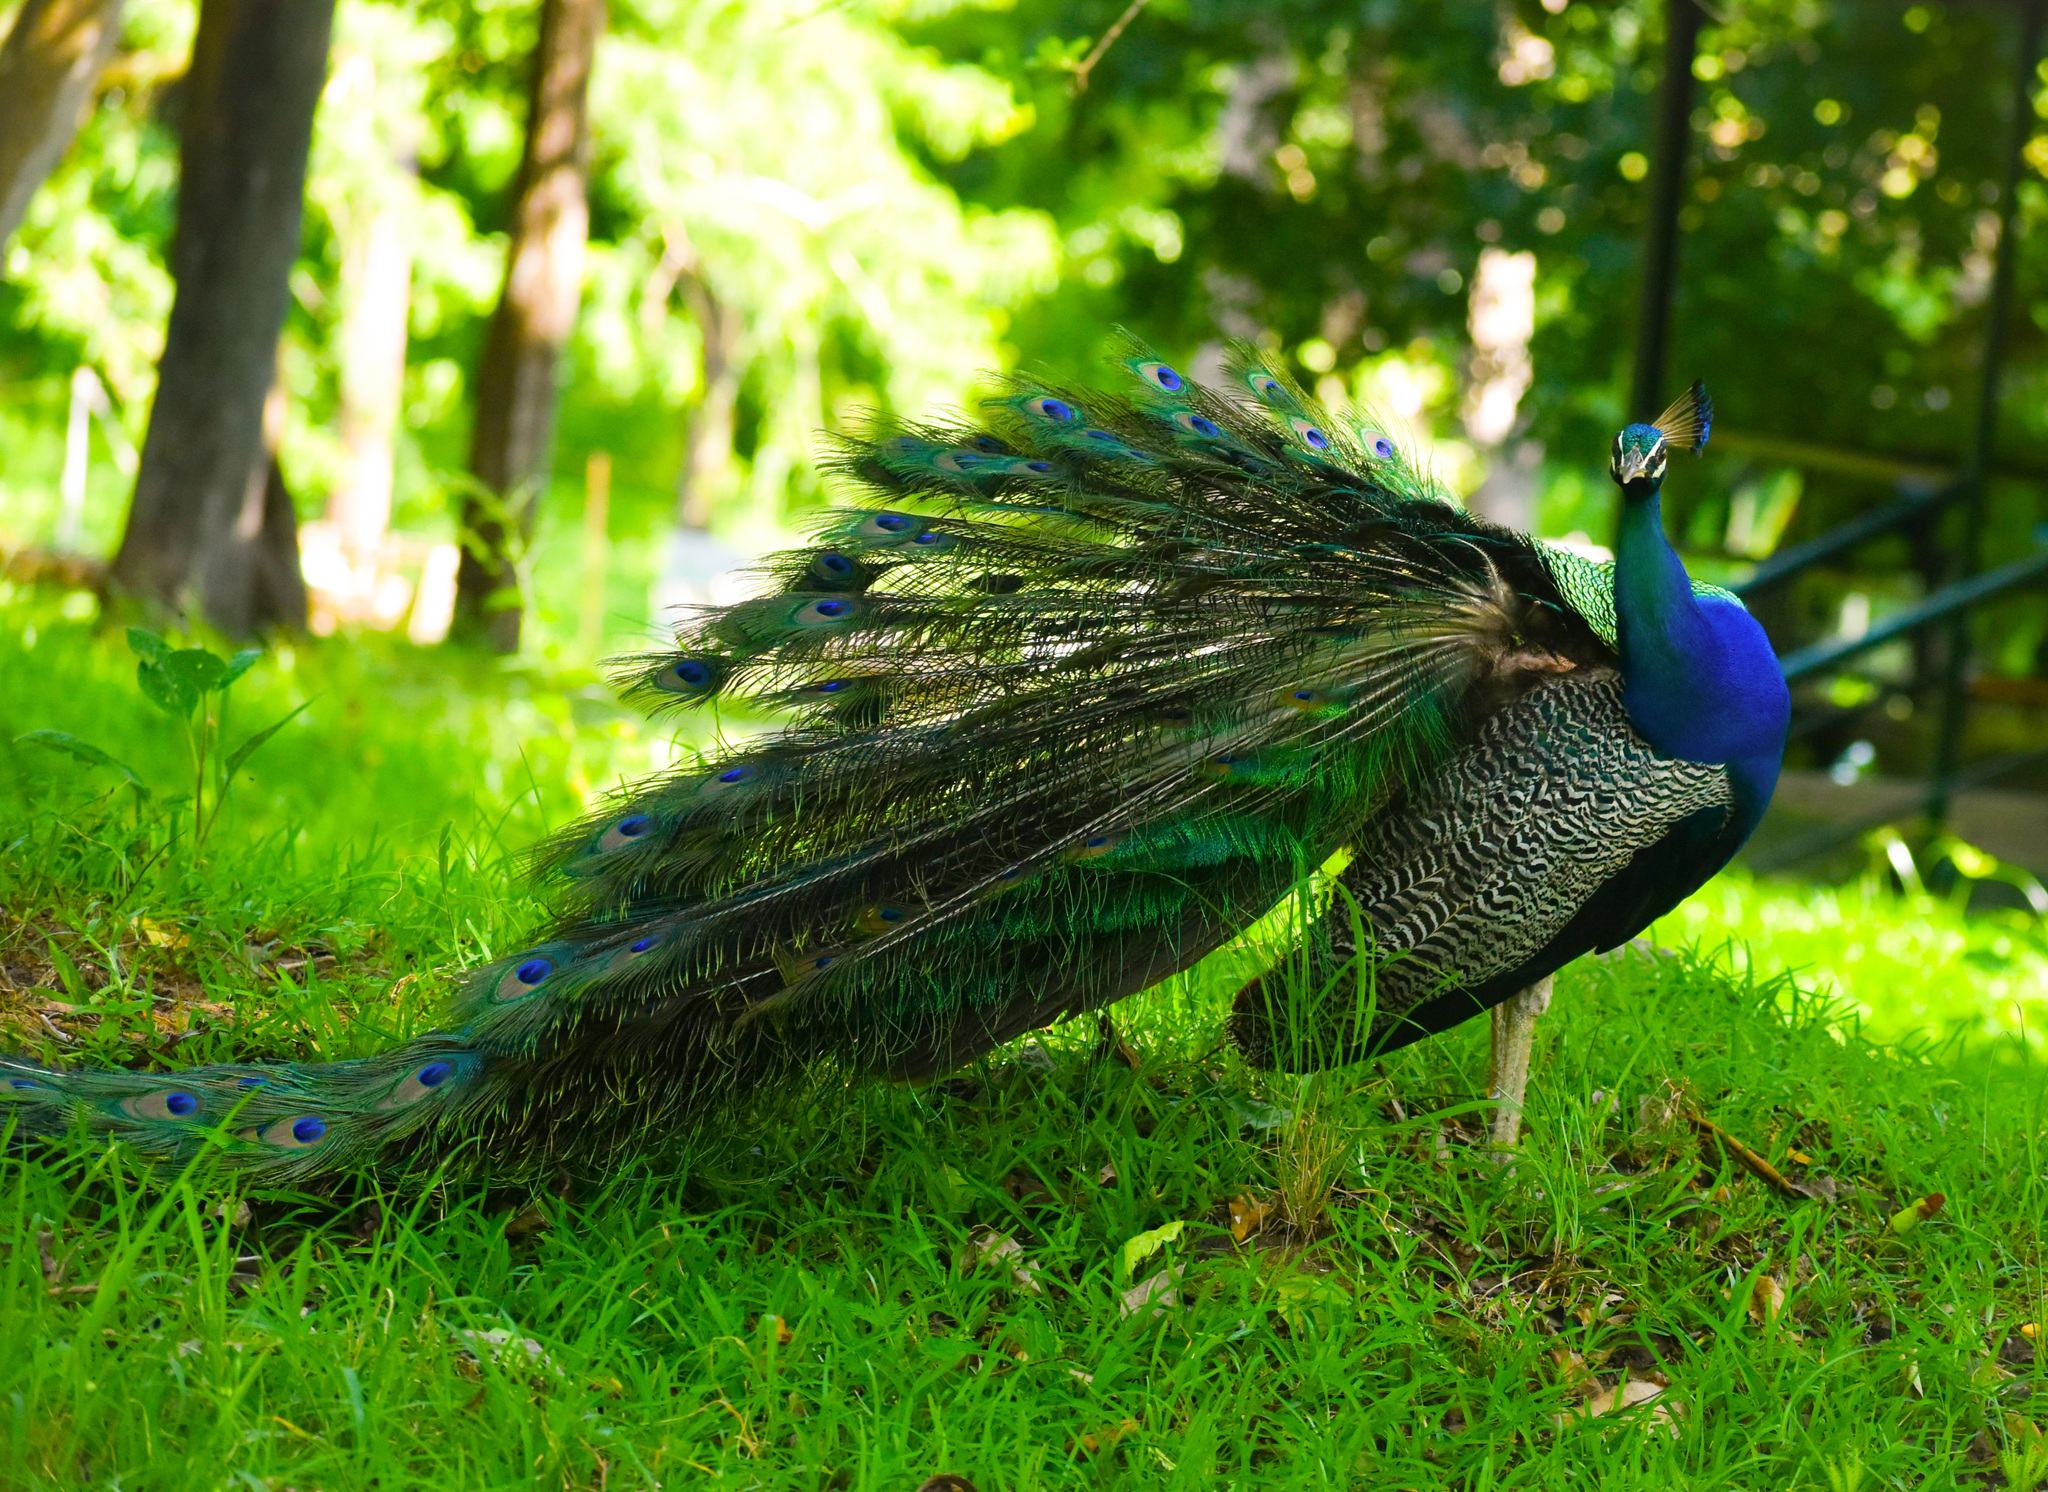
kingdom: Animalia
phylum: Chordata
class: Aves
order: Galliformes
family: Phasianidae
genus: Pavo
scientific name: Pavo cristatus
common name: Indian peafowl
